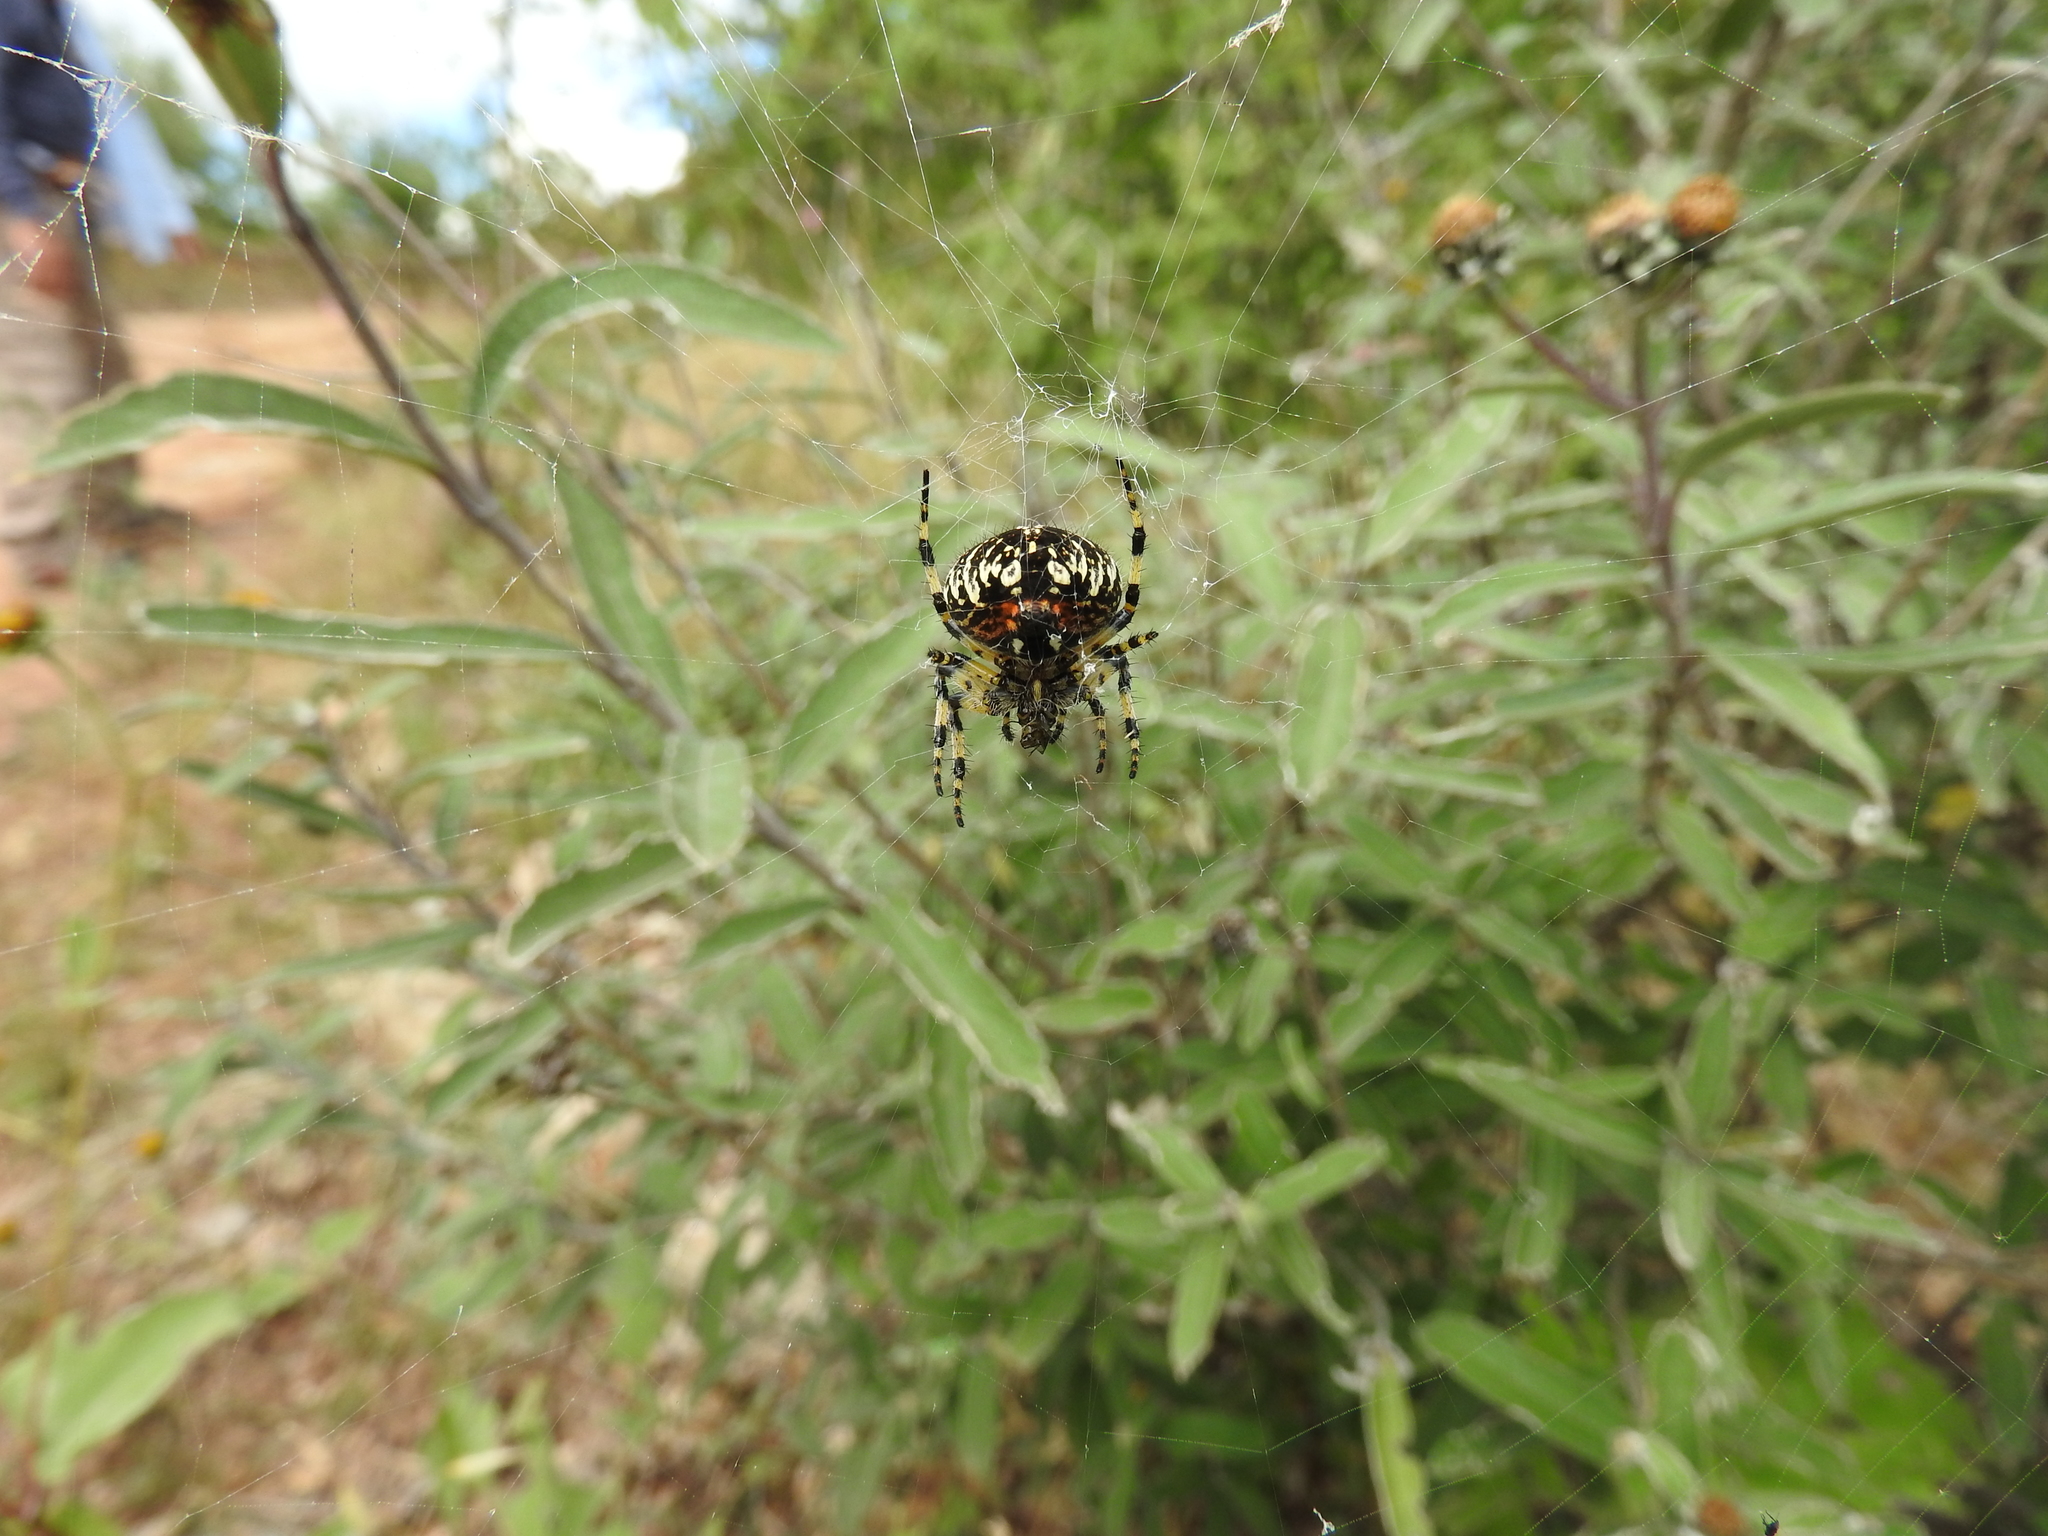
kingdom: Animalia
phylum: Arthropoda
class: Arachnida
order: Araneae
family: Araneidae
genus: Neoscona
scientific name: Neoscona orizabensis
